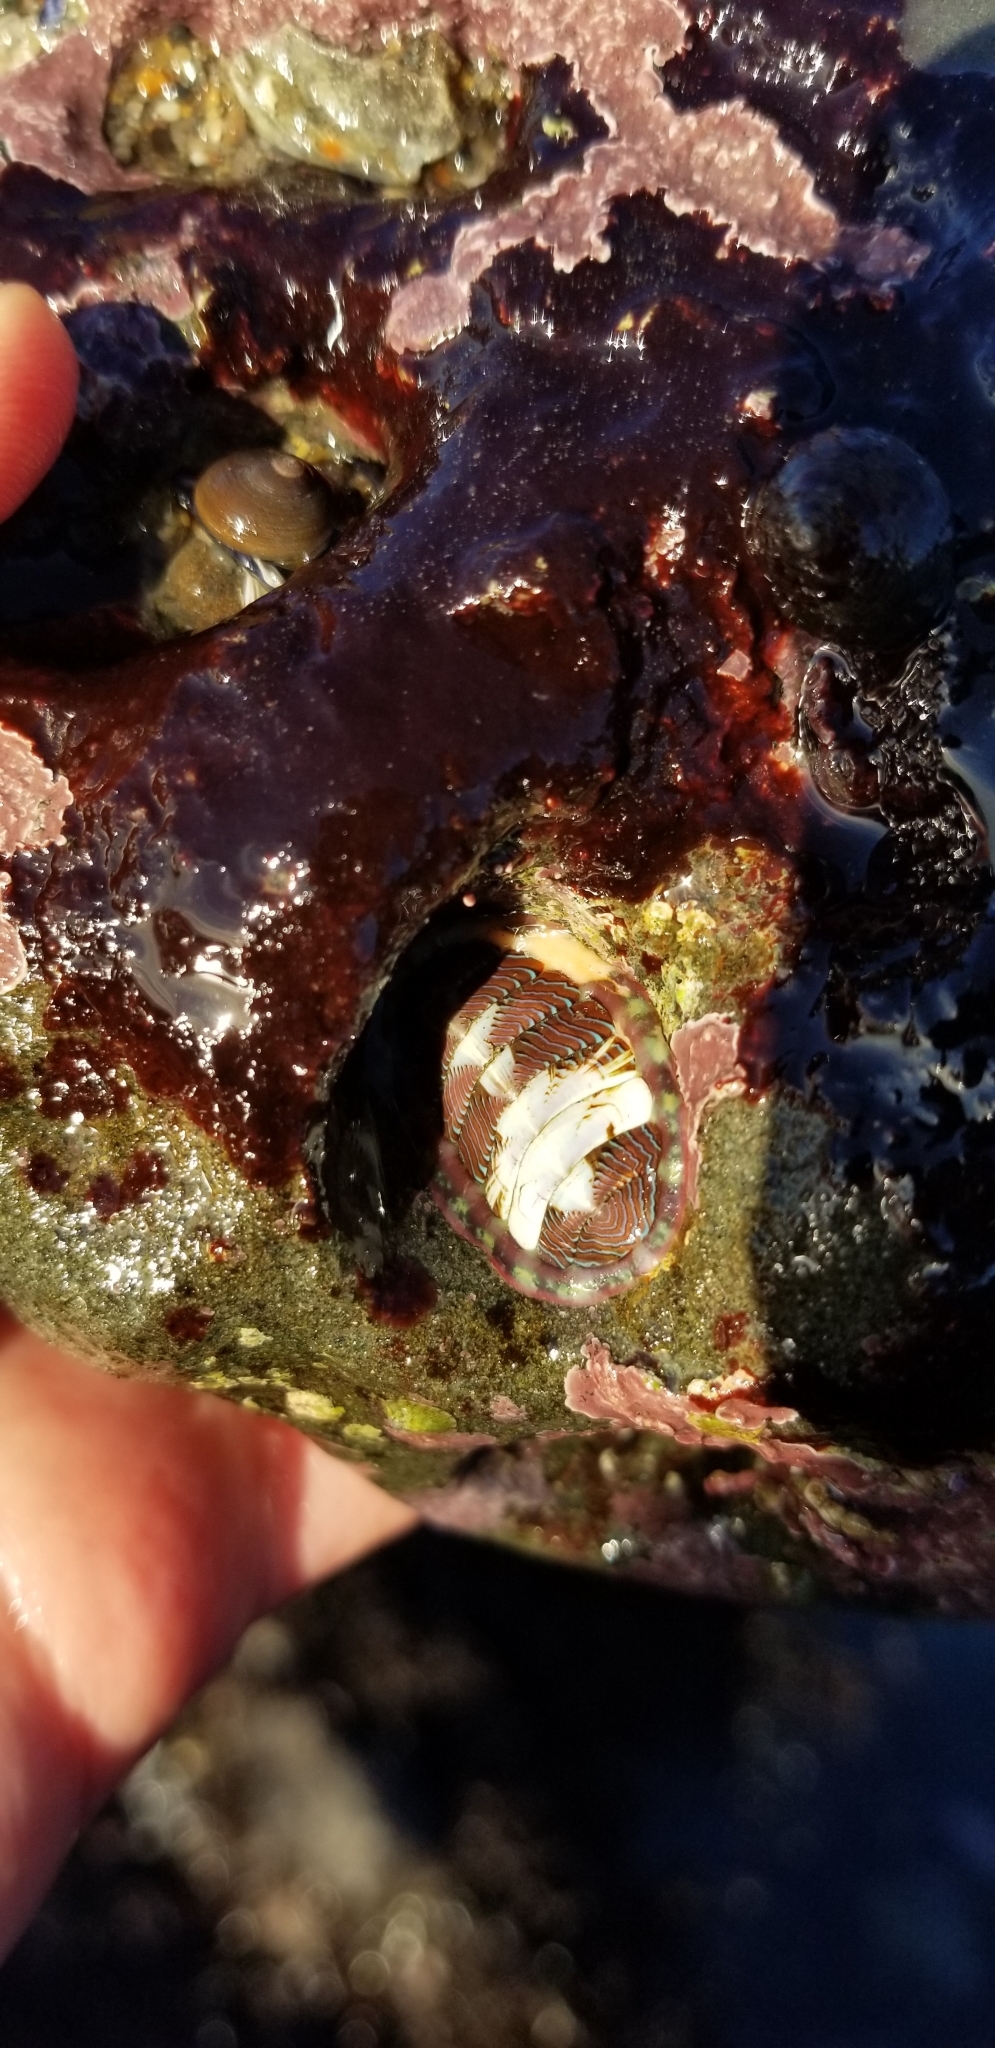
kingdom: Animalia
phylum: Mollusca
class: Polyplacophora
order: Chitonida
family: Tonicellidae
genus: Tonicella
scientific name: Tonicella lineata
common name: Lined chiton
